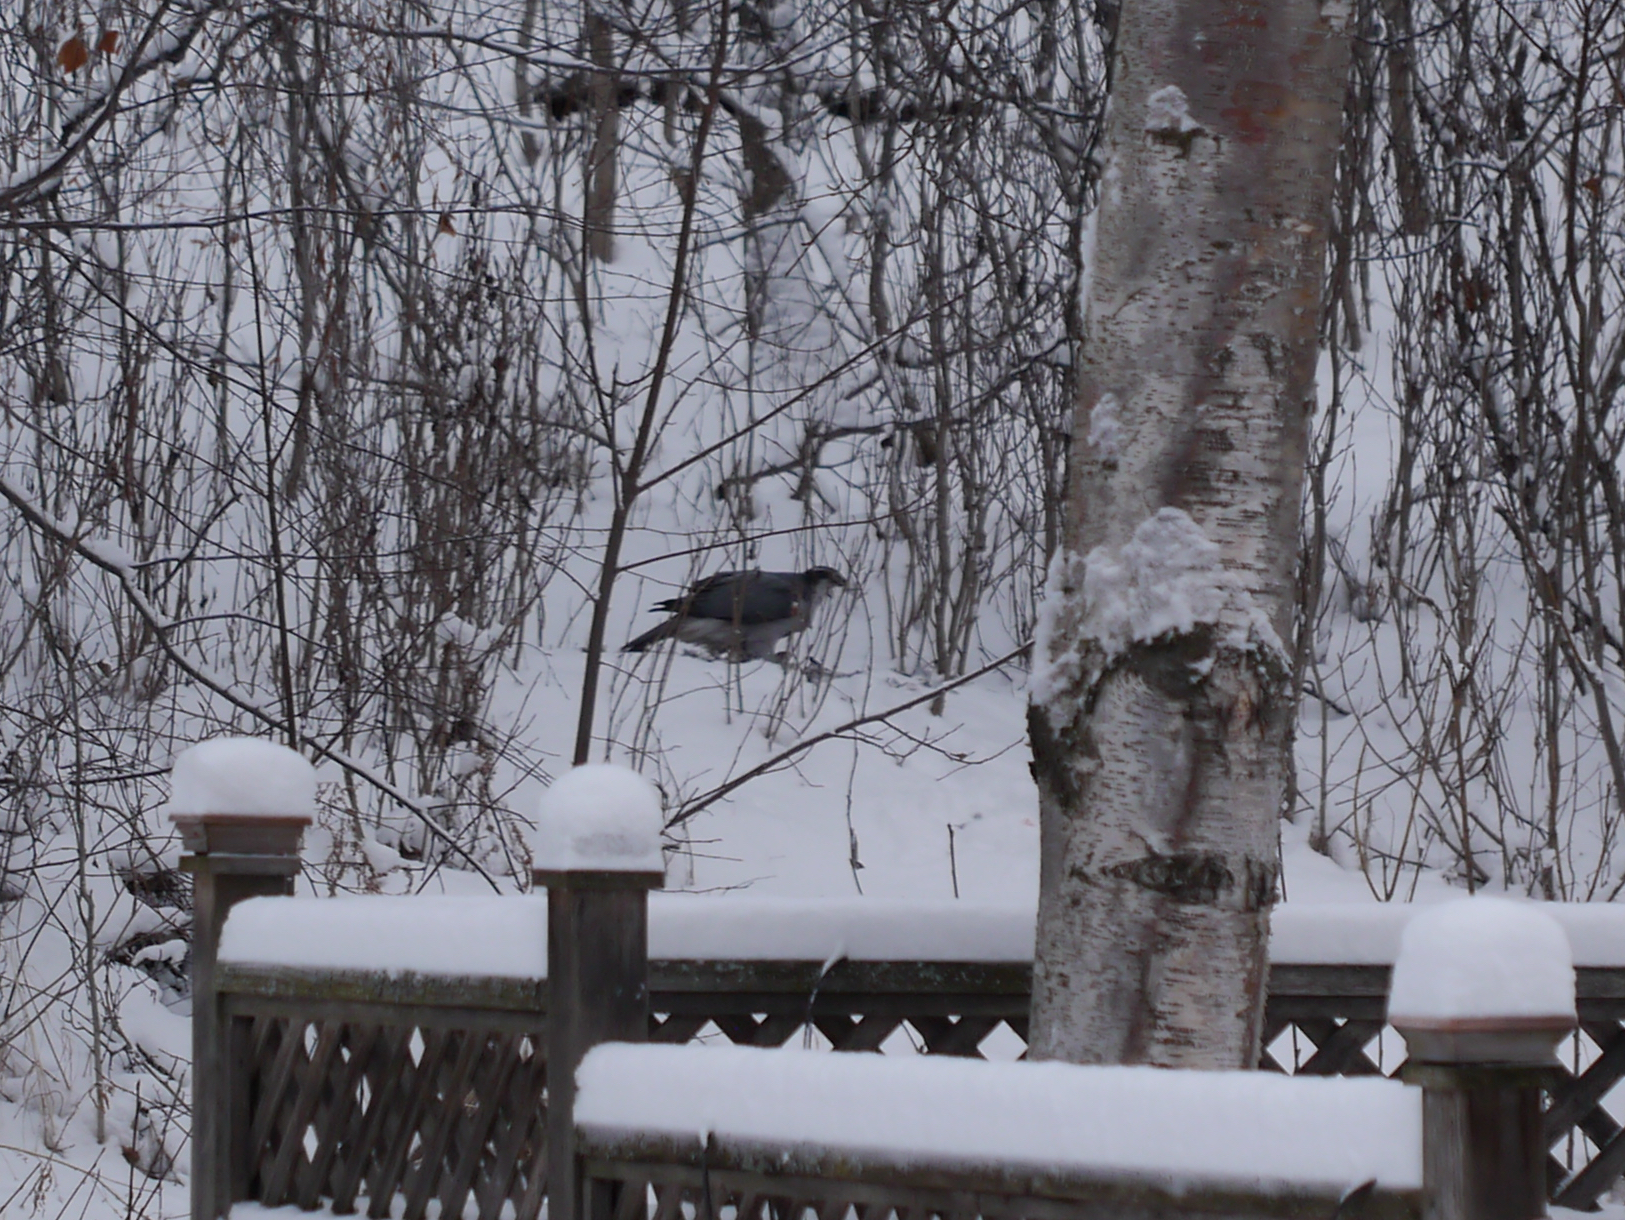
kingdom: Animalia
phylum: Chordata
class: Aves
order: Accipitriformes
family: Accipitridae
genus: Accipiter
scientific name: Accipiter gentilis
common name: Northern goshawk
